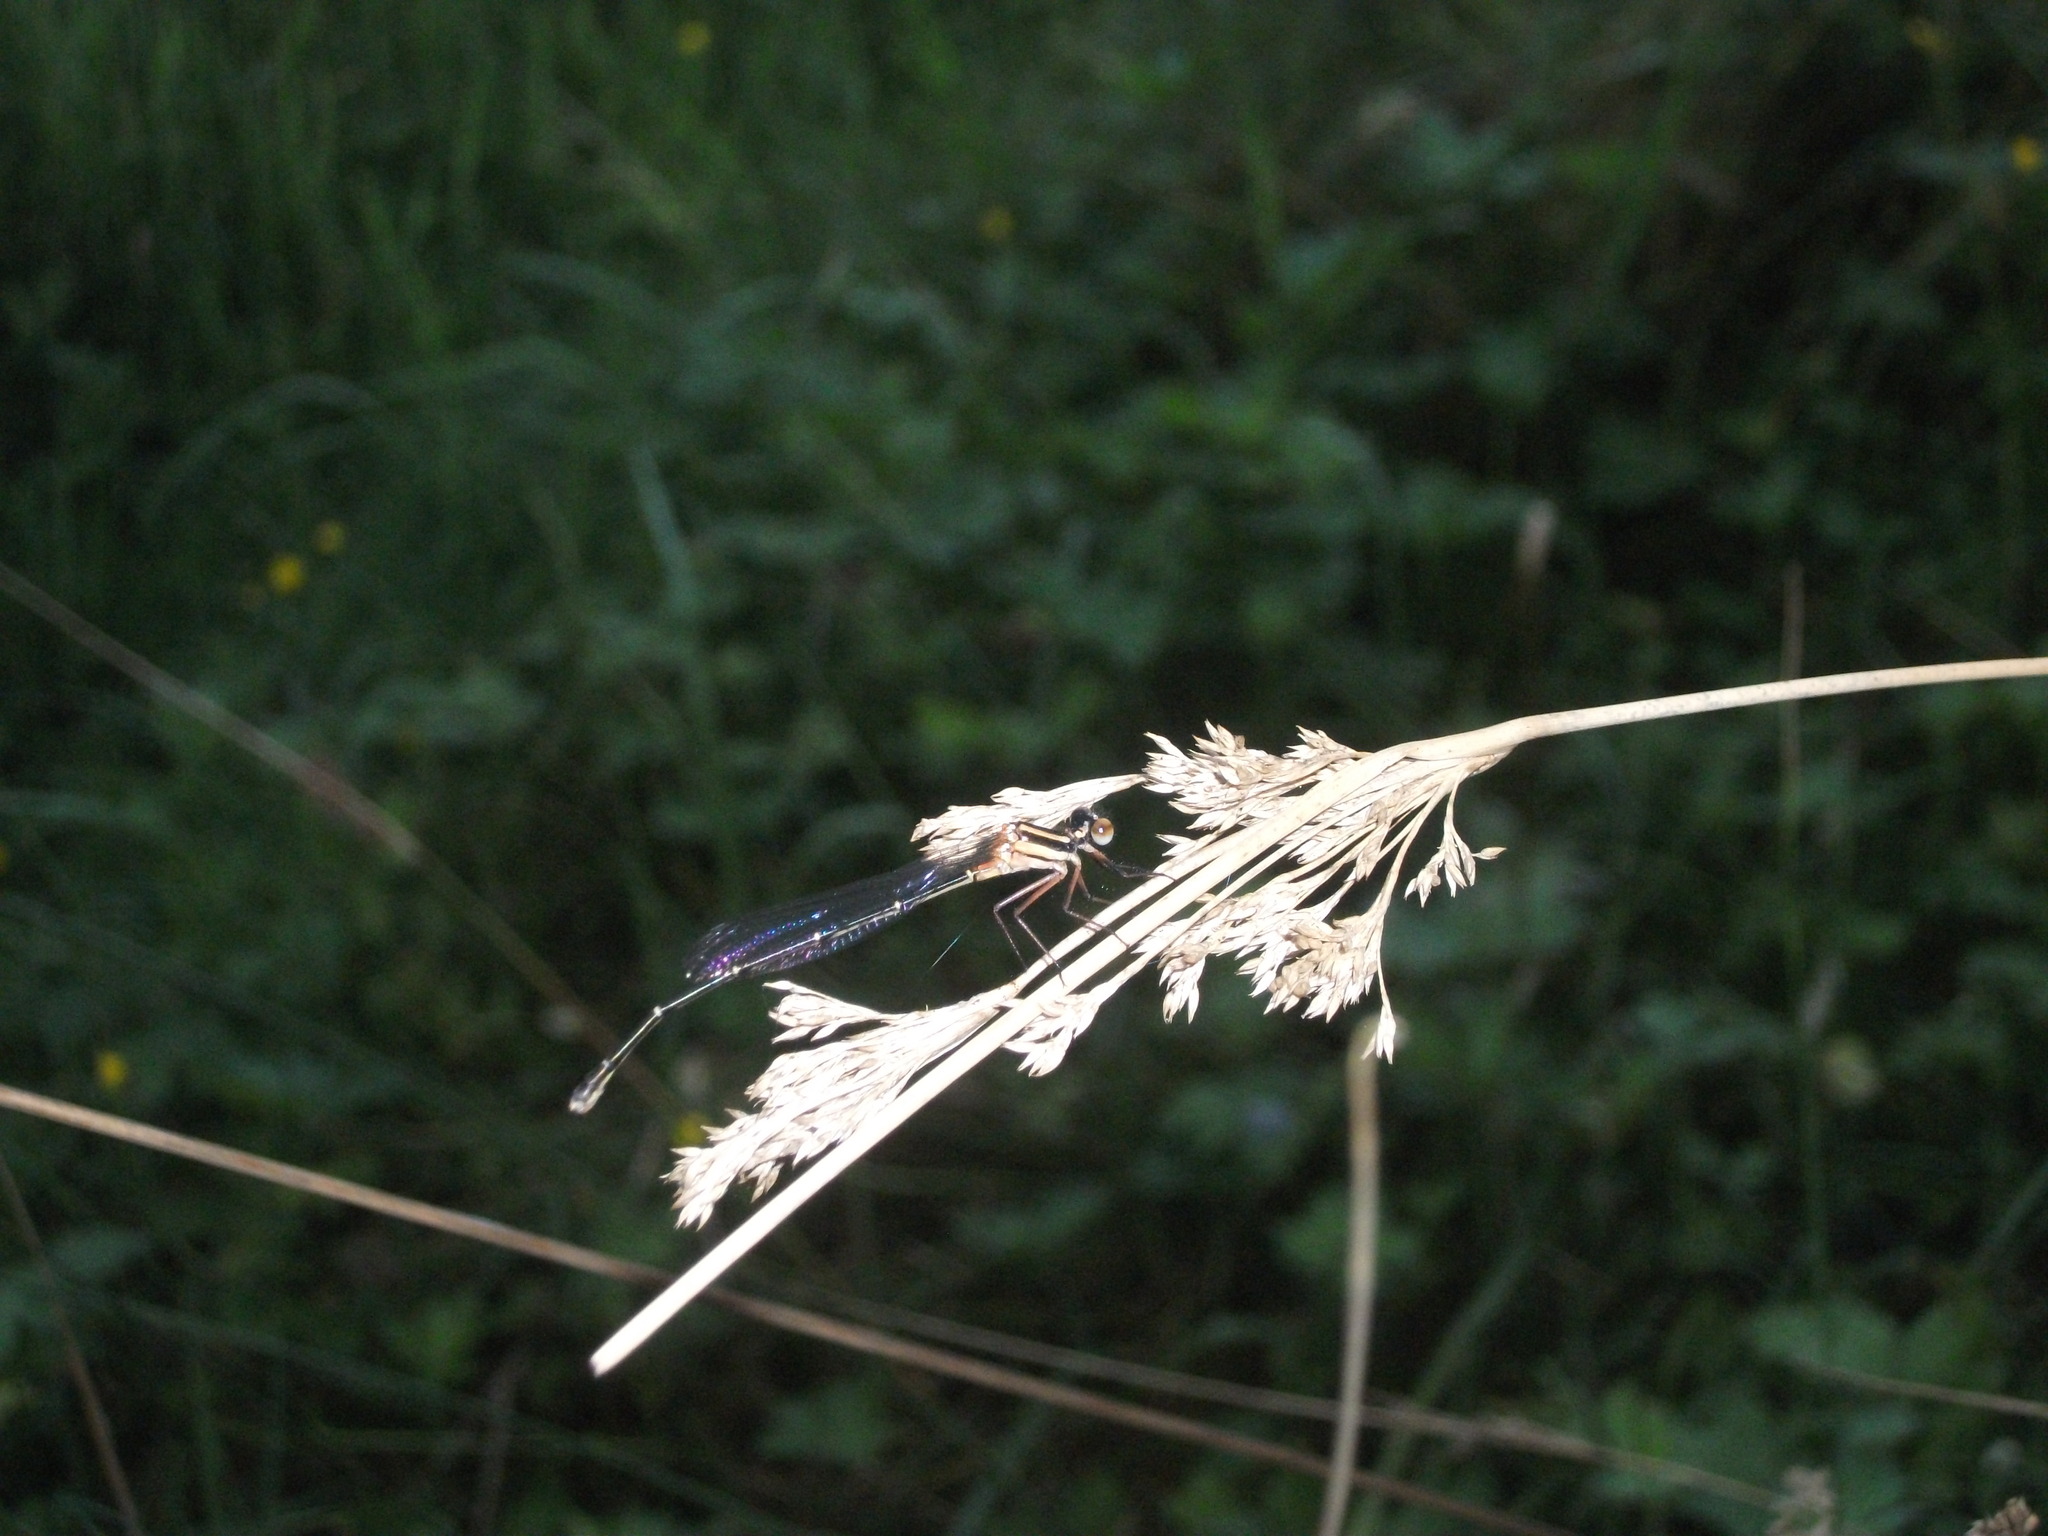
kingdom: Animalia
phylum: Arthropoda
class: Insecta
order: Odonata
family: Platycnemididae
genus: Nososticta
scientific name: Nososticta solida
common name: Orange threadtail
